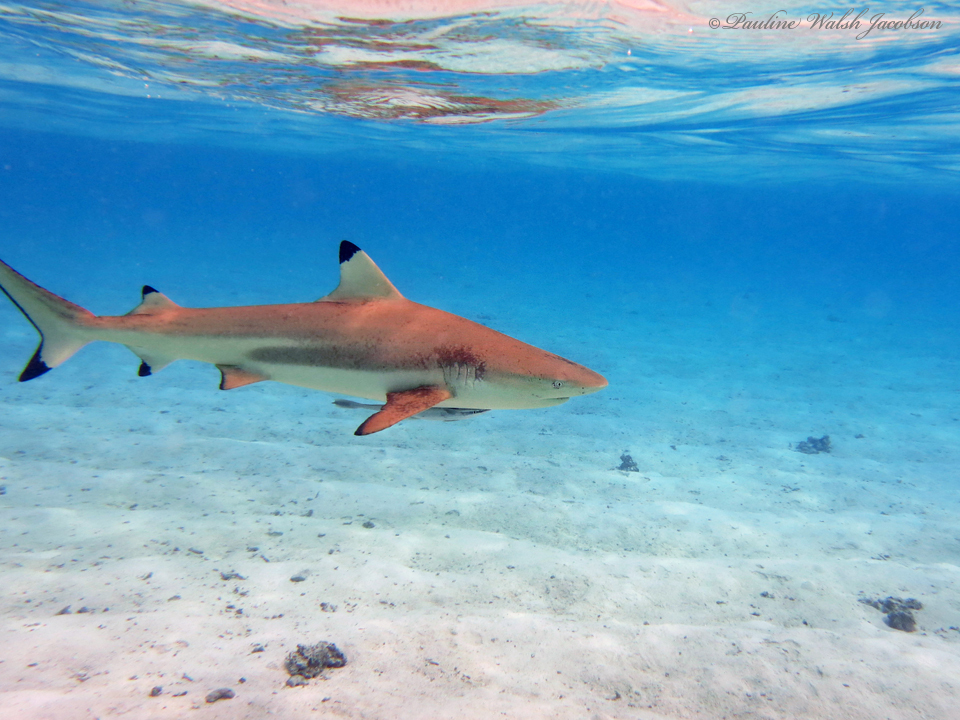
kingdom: Animalia
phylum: Chordata
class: Elasmobranchii
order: Carcharhiniformes
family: Carcharhinidae
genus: Carcharhinus
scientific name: Carcharhinus melanopterus
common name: Blacktip reef shark
